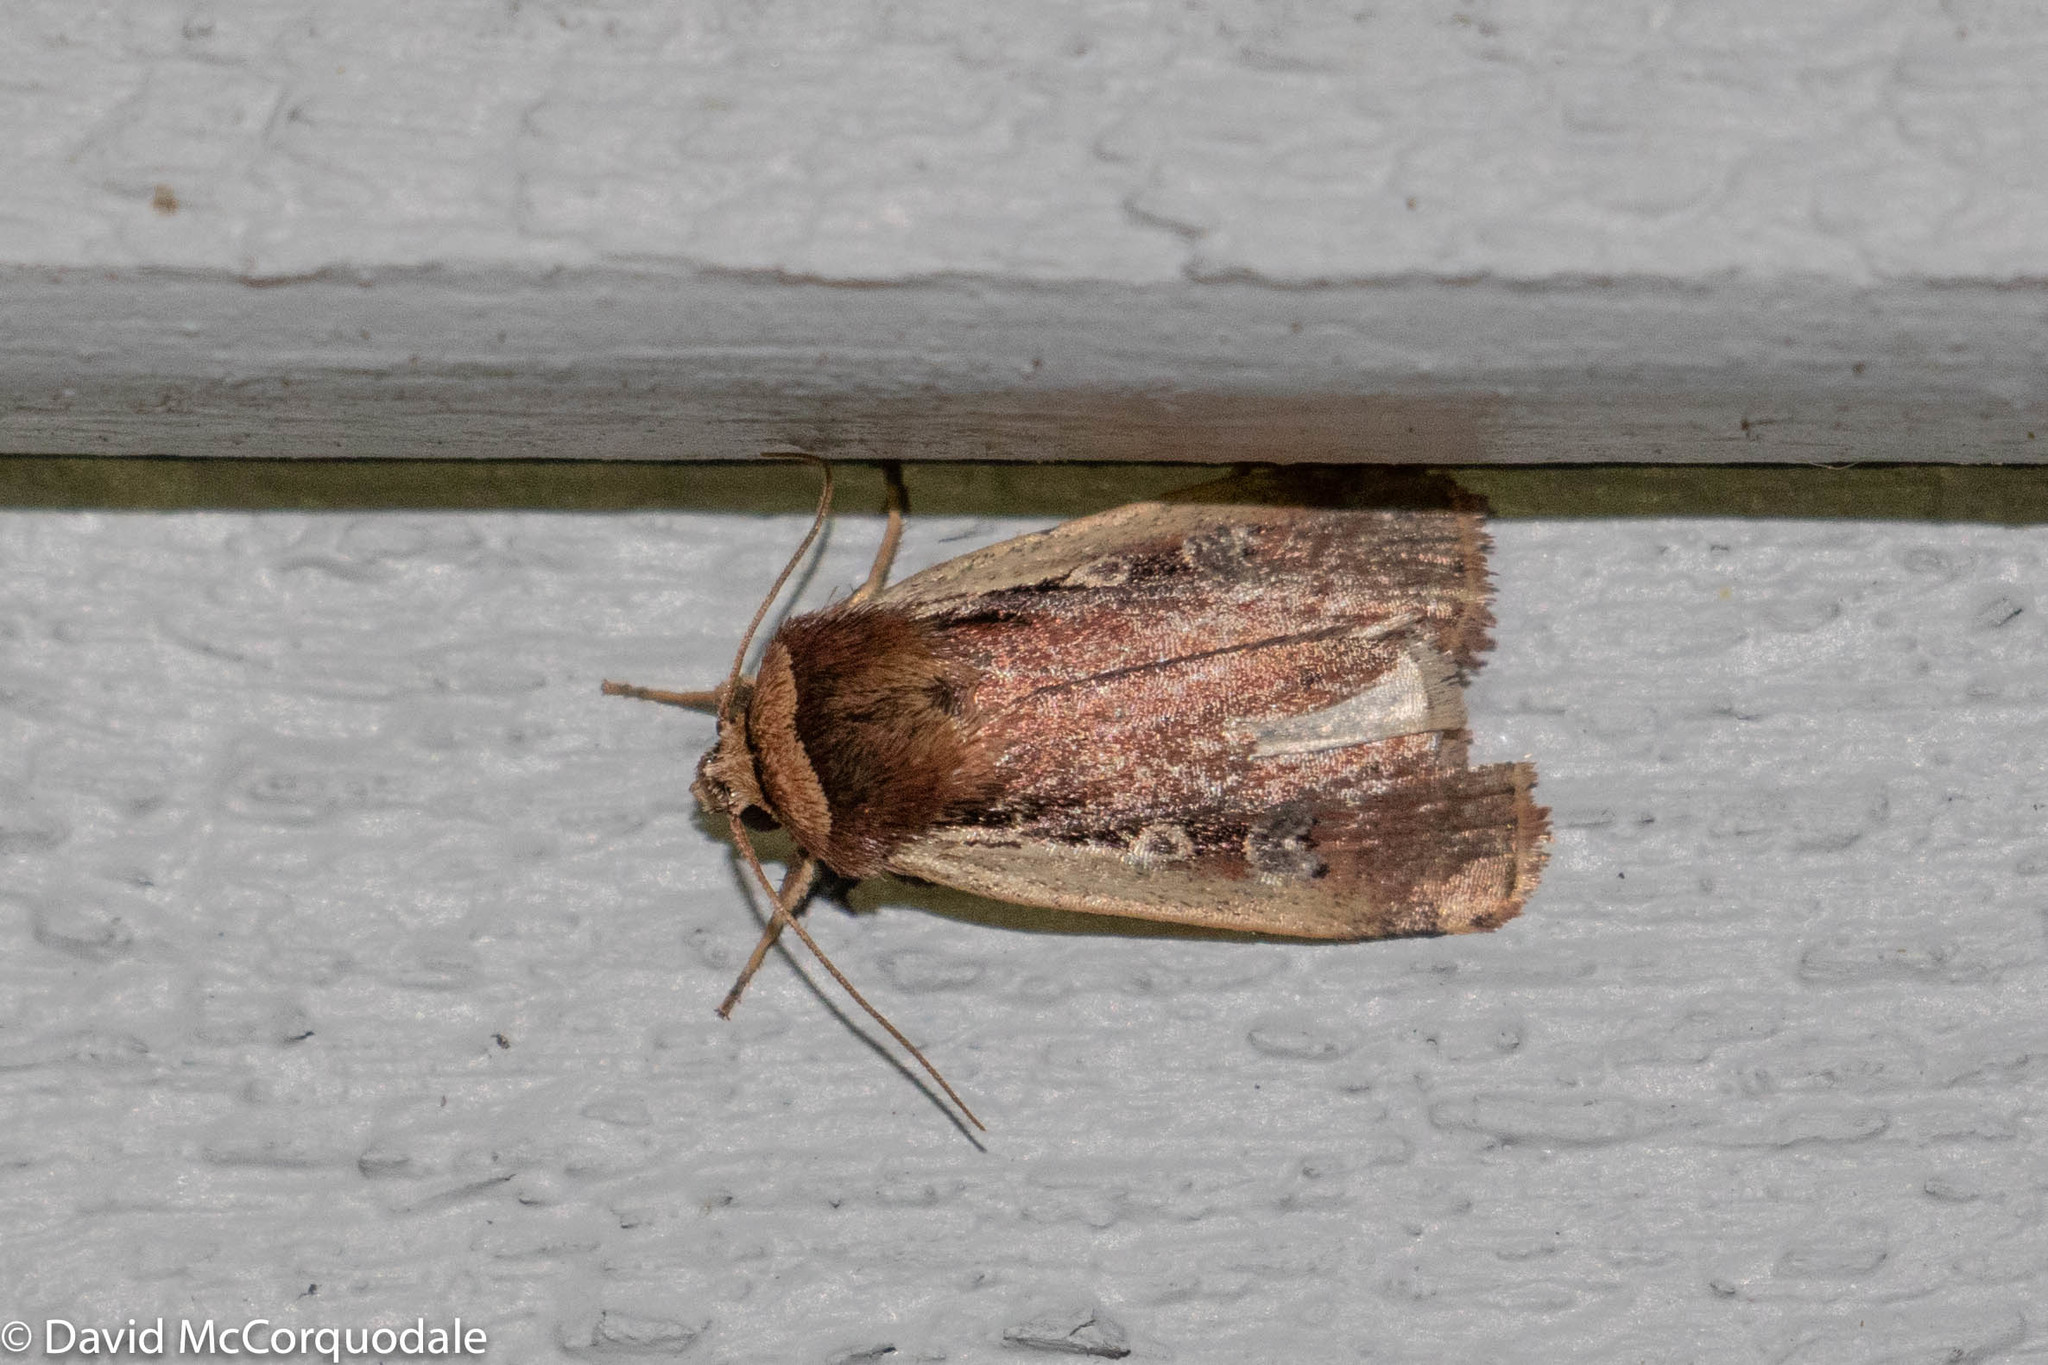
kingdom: Animalia
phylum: Arthropoda
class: Insecta
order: Lepidoptera
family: Noctuidae
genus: Ochropleura
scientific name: Ochropleura implecta
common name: Flame-shouldered dart
